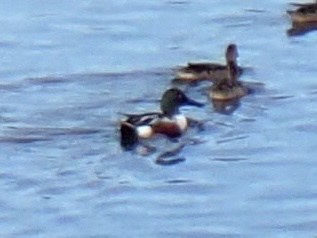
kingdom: Animalia
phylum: Chordata
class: Aves
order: Anseriformes
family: Anatidae
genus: Spatula
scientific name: Spatula clypeata
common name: Northern shoveler
